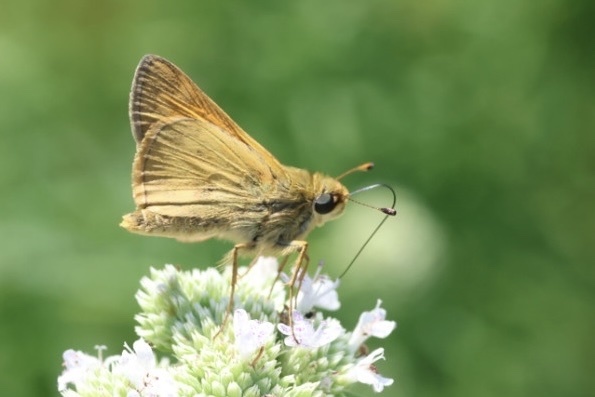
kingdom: Animalia
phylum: Arthropoda
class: Insecta
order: Lepidoptera
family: Hesperiidae
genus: Atalopedes
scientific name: Atalopedes
